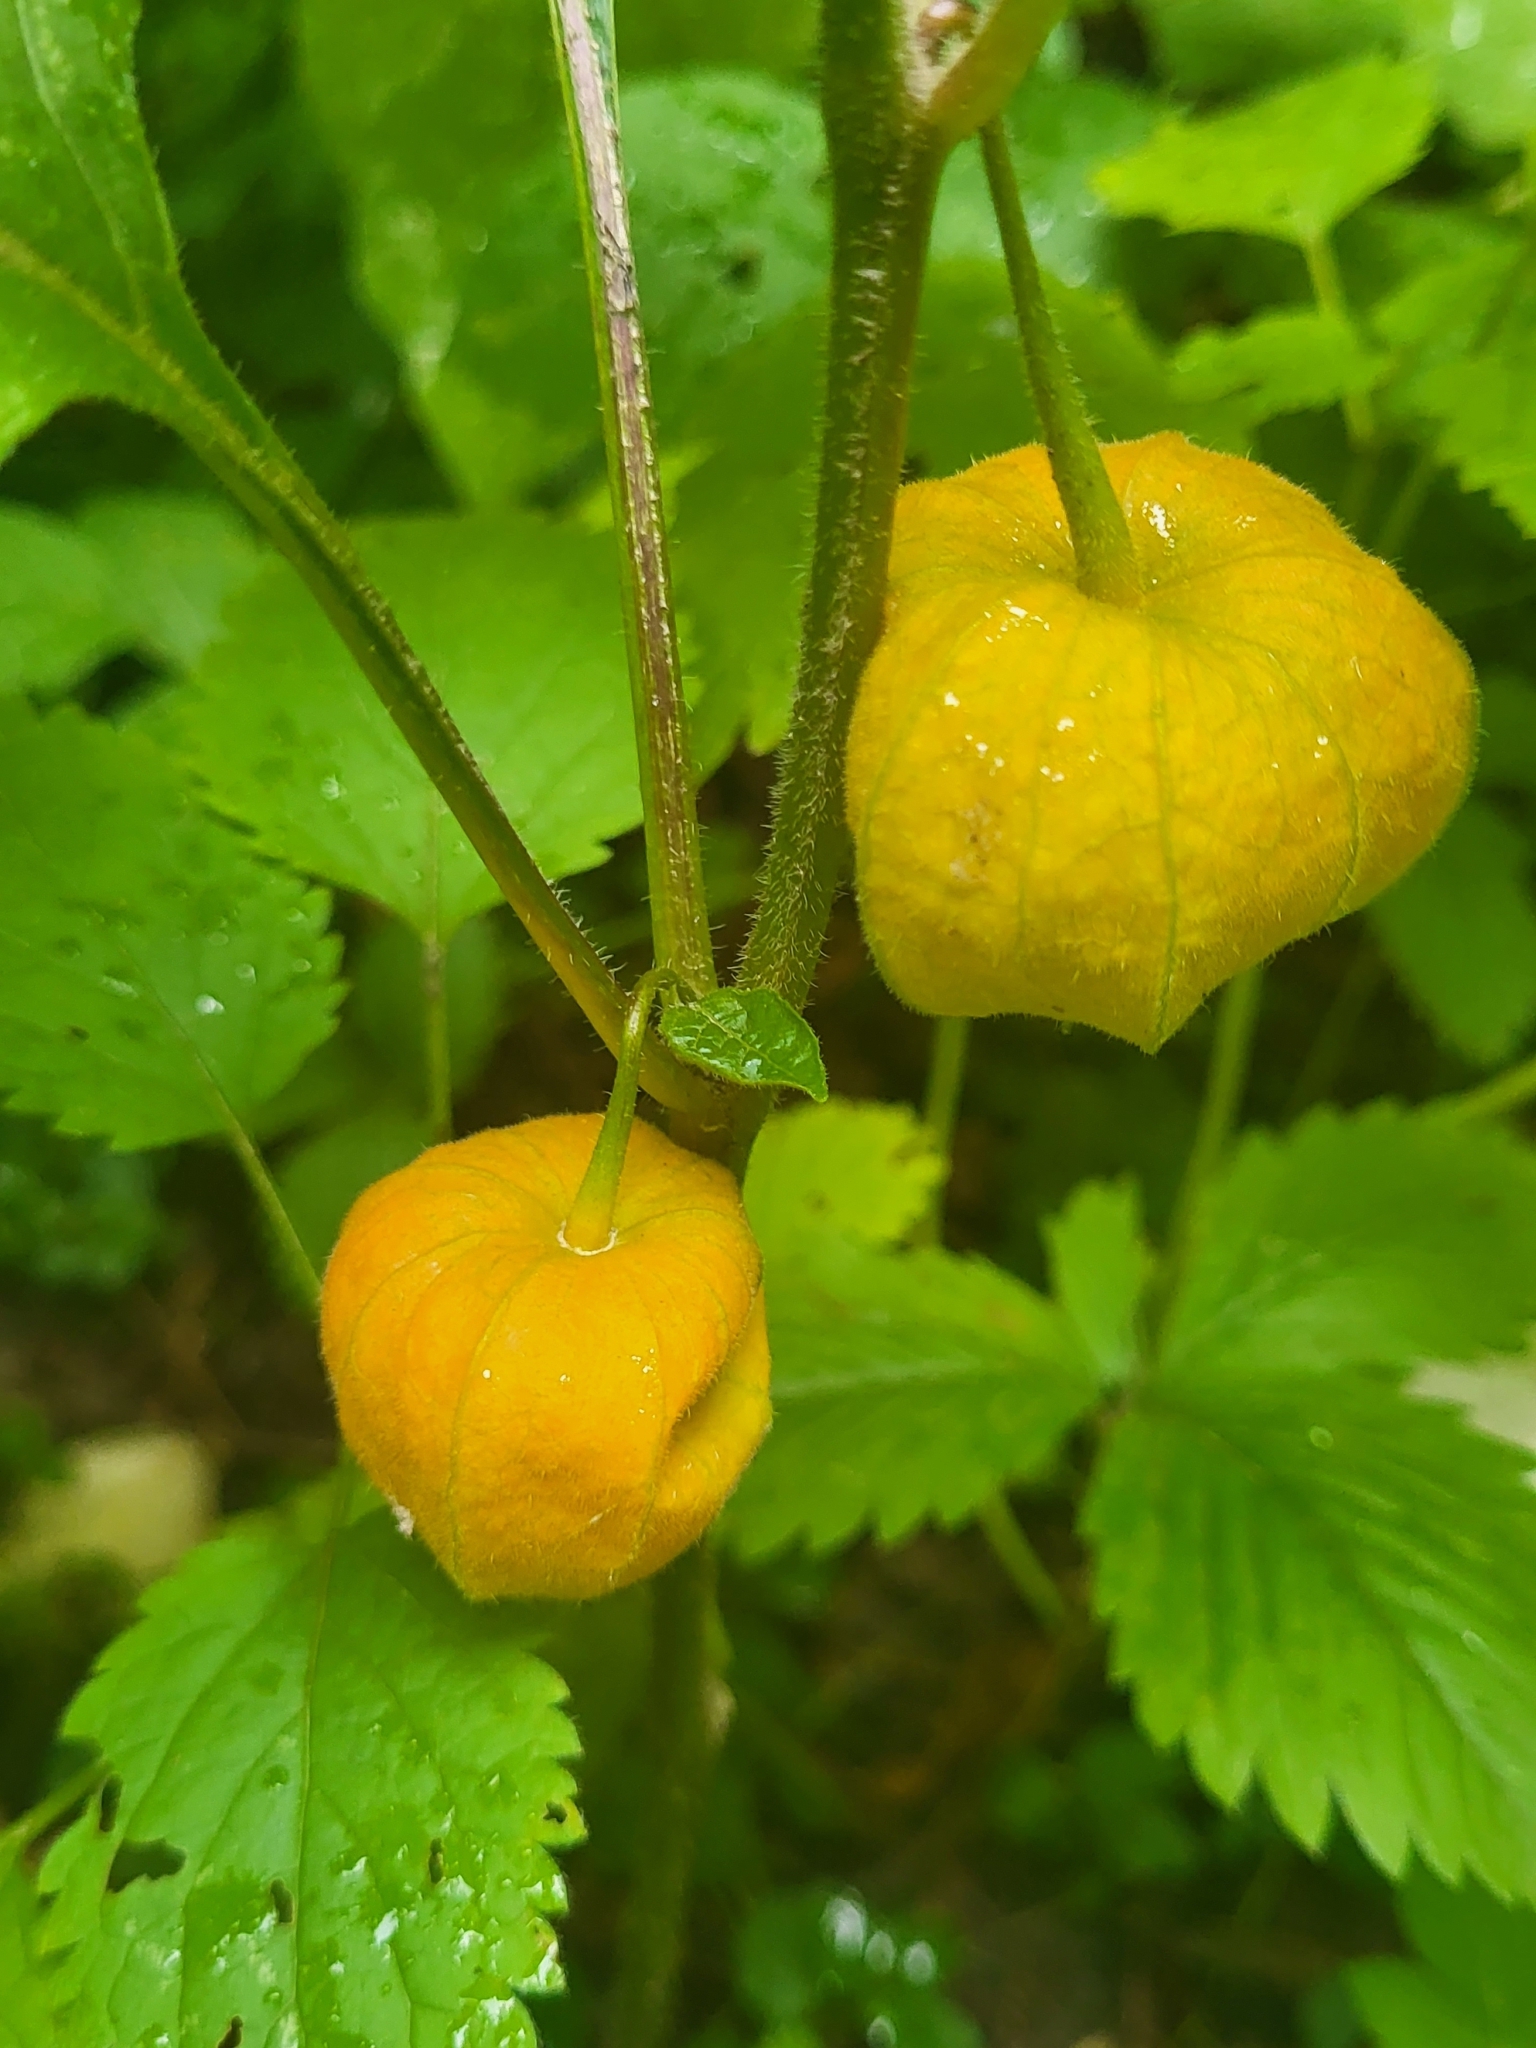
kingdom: Plantae
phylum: Tracheophyta
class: Magnoliopsida
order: Solanales
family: Solanaceae
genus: Alkekengi
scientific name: Alkekengi officinarum
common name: Japanese-lantern
